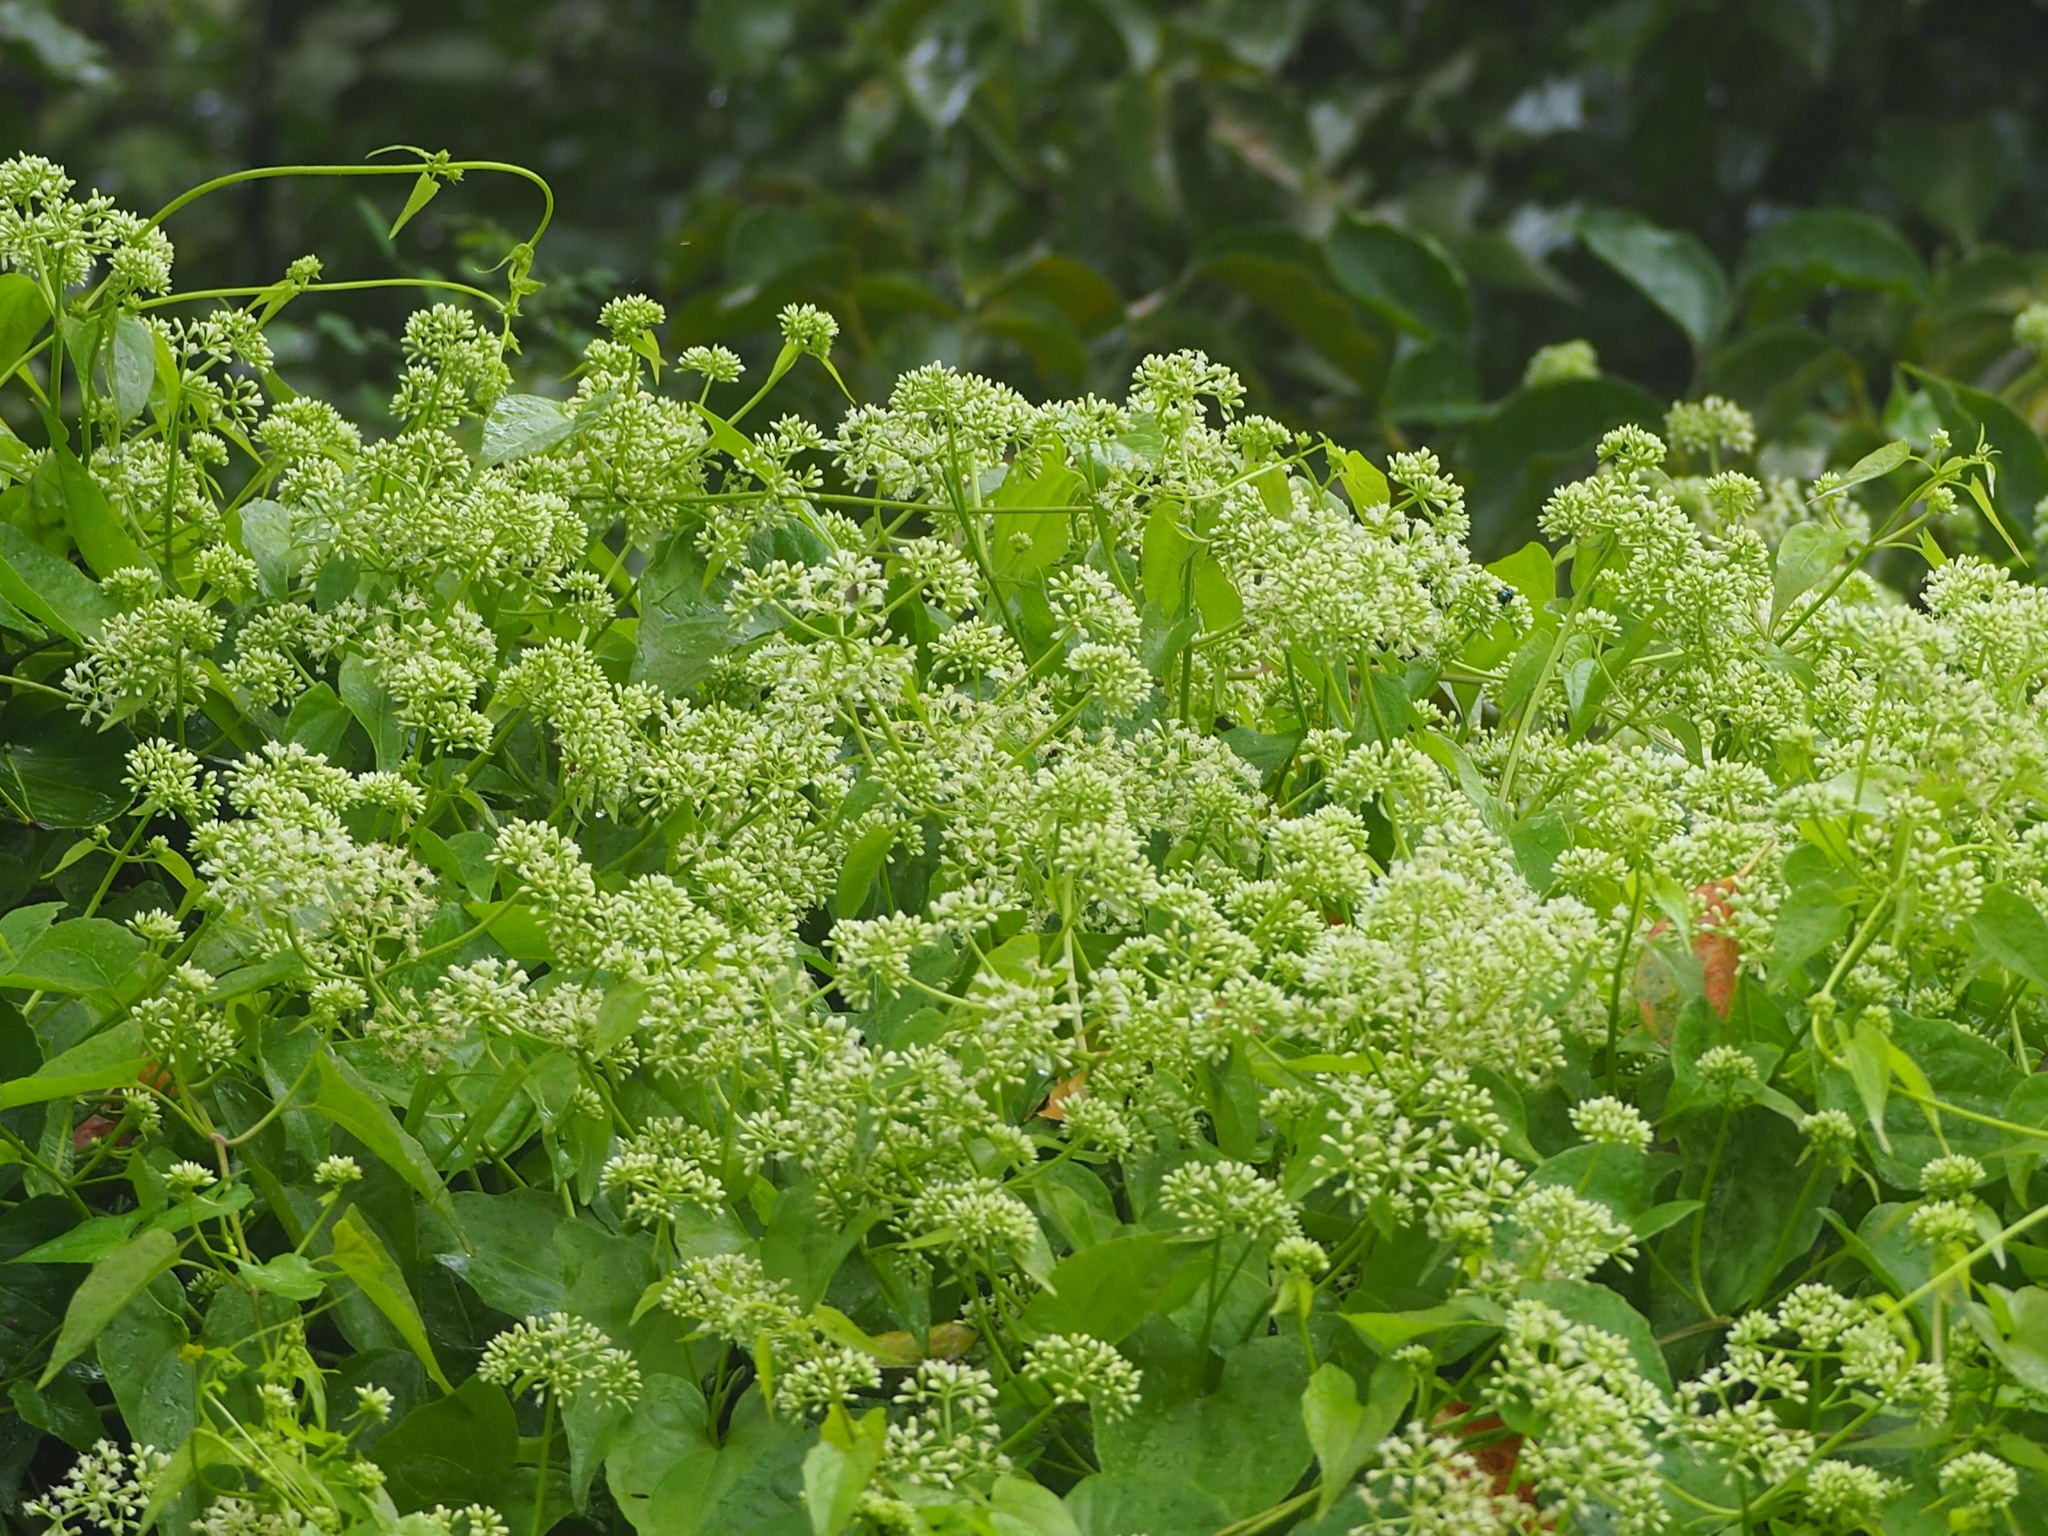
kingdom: Plantae
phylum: Tracheophyta
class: Magnoliopsida
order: Asterales
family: Asteraceae
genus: Mikania
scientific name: Mikania micrantha
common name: Mile-a-minute
